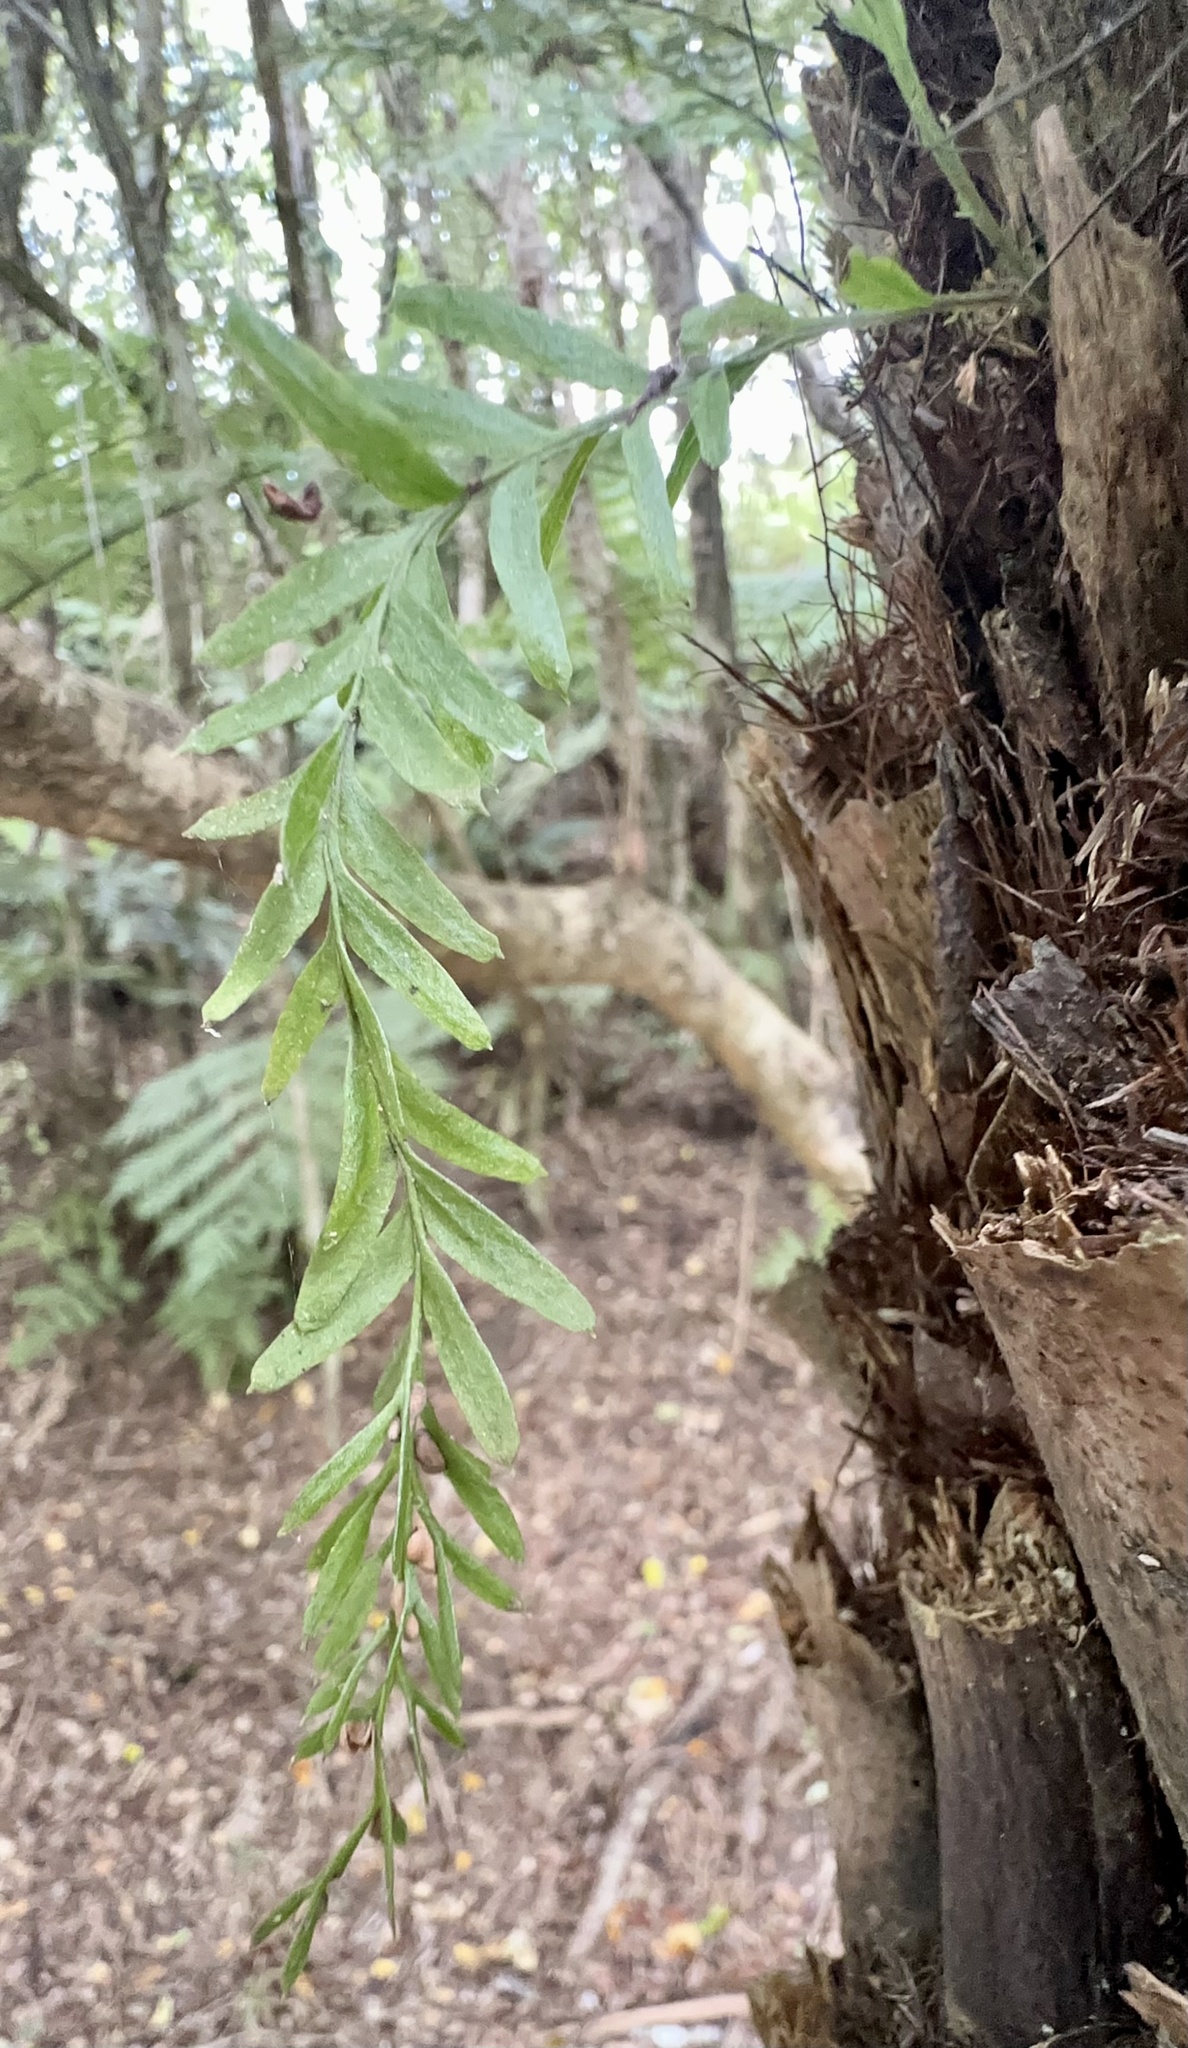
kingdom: Plantae
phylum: Tracheophyta
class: Polypodiopsida
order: Psilotales
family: Psilotaceae
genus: Tmesipteris
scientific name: Tmesipteris elongata
